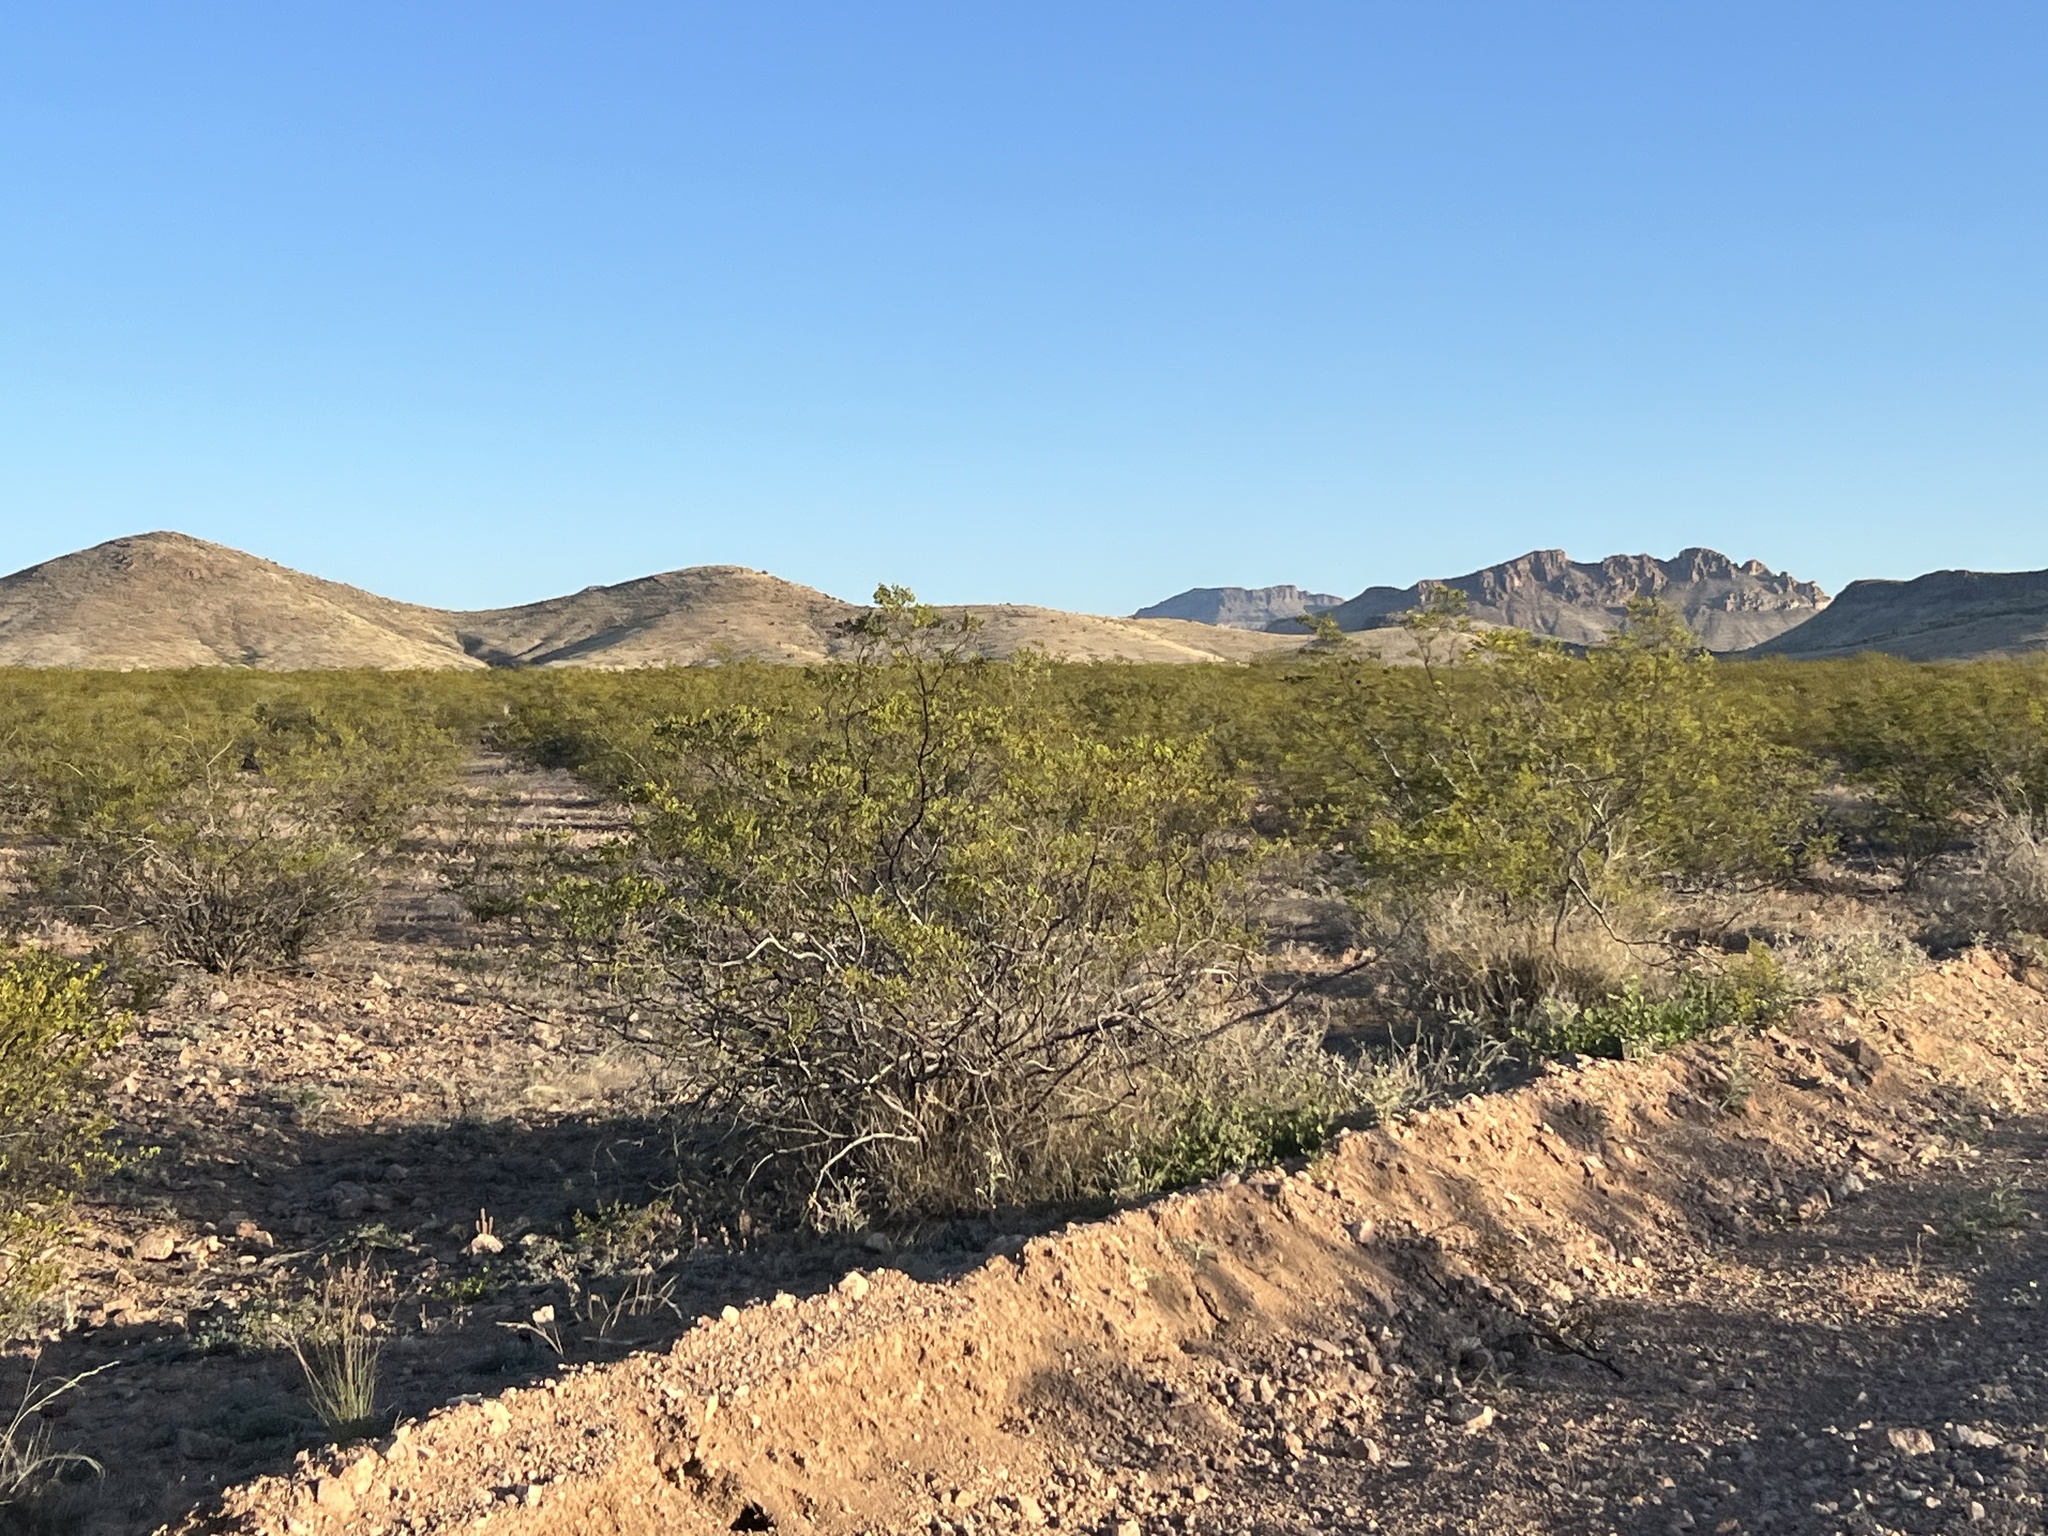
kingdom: Plantae
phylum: Tracheophyta
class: Magnoliopsida
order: Zygophyllales
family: Zygophyllaceae
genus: Larrea
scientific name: Larrea tridentata
